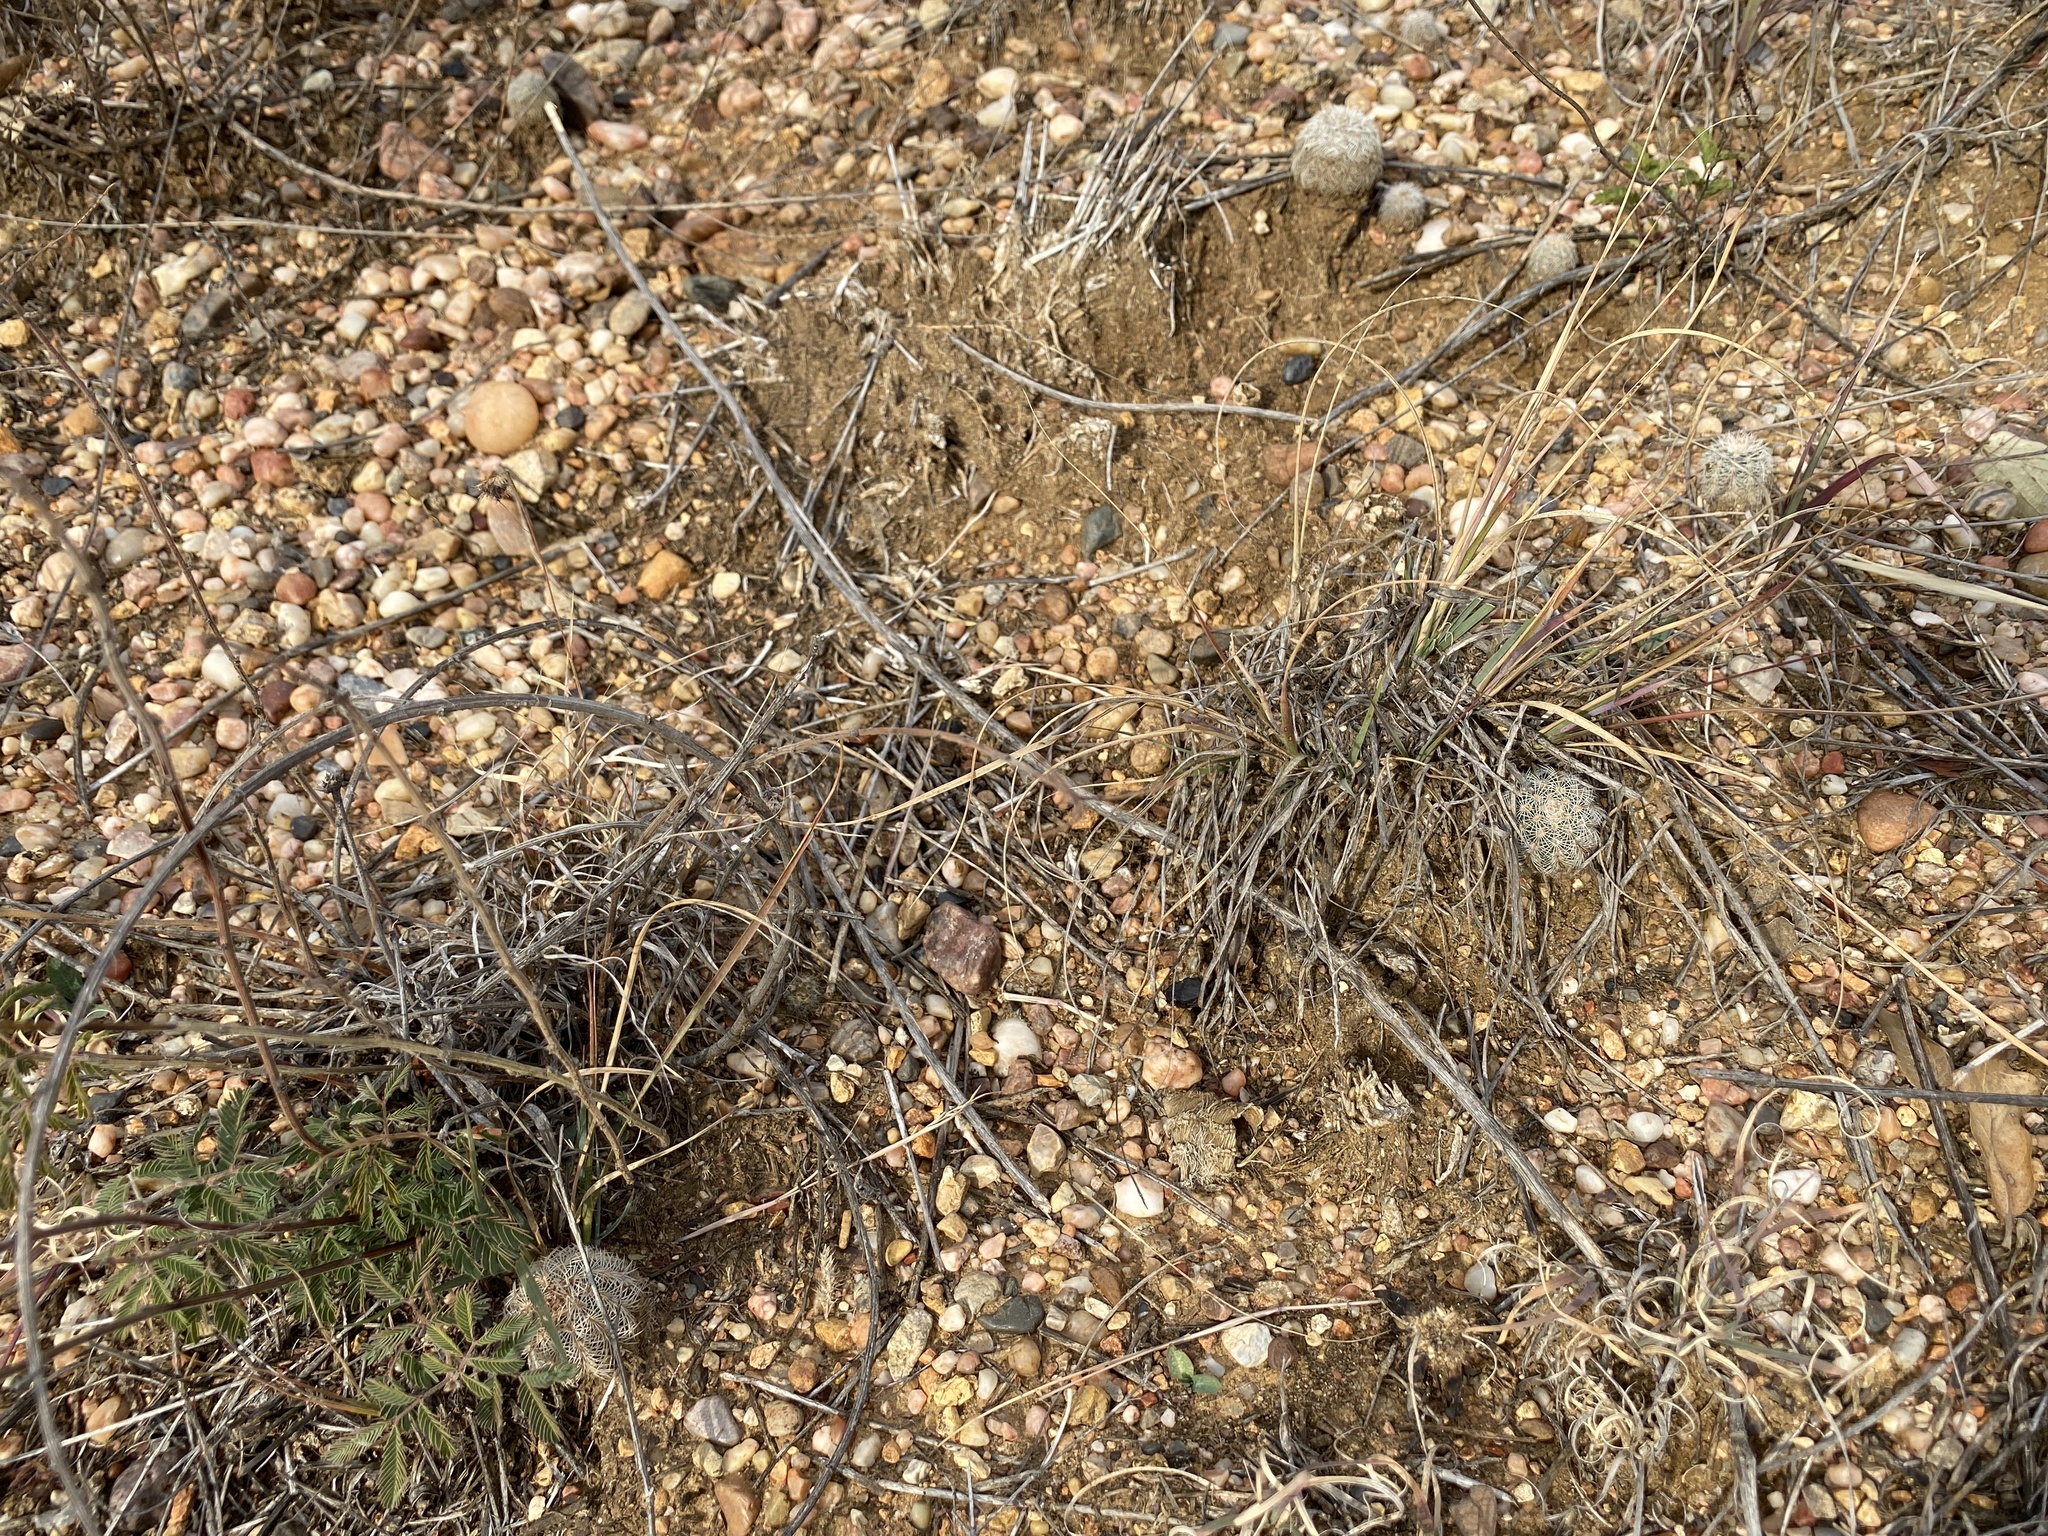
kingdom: Plantae
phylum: Tracheophyta
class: Magnoliopsida
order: Caryophyllales
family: Cactaceae
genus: Echinocereus
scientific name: Echinocereus reichenbachii
